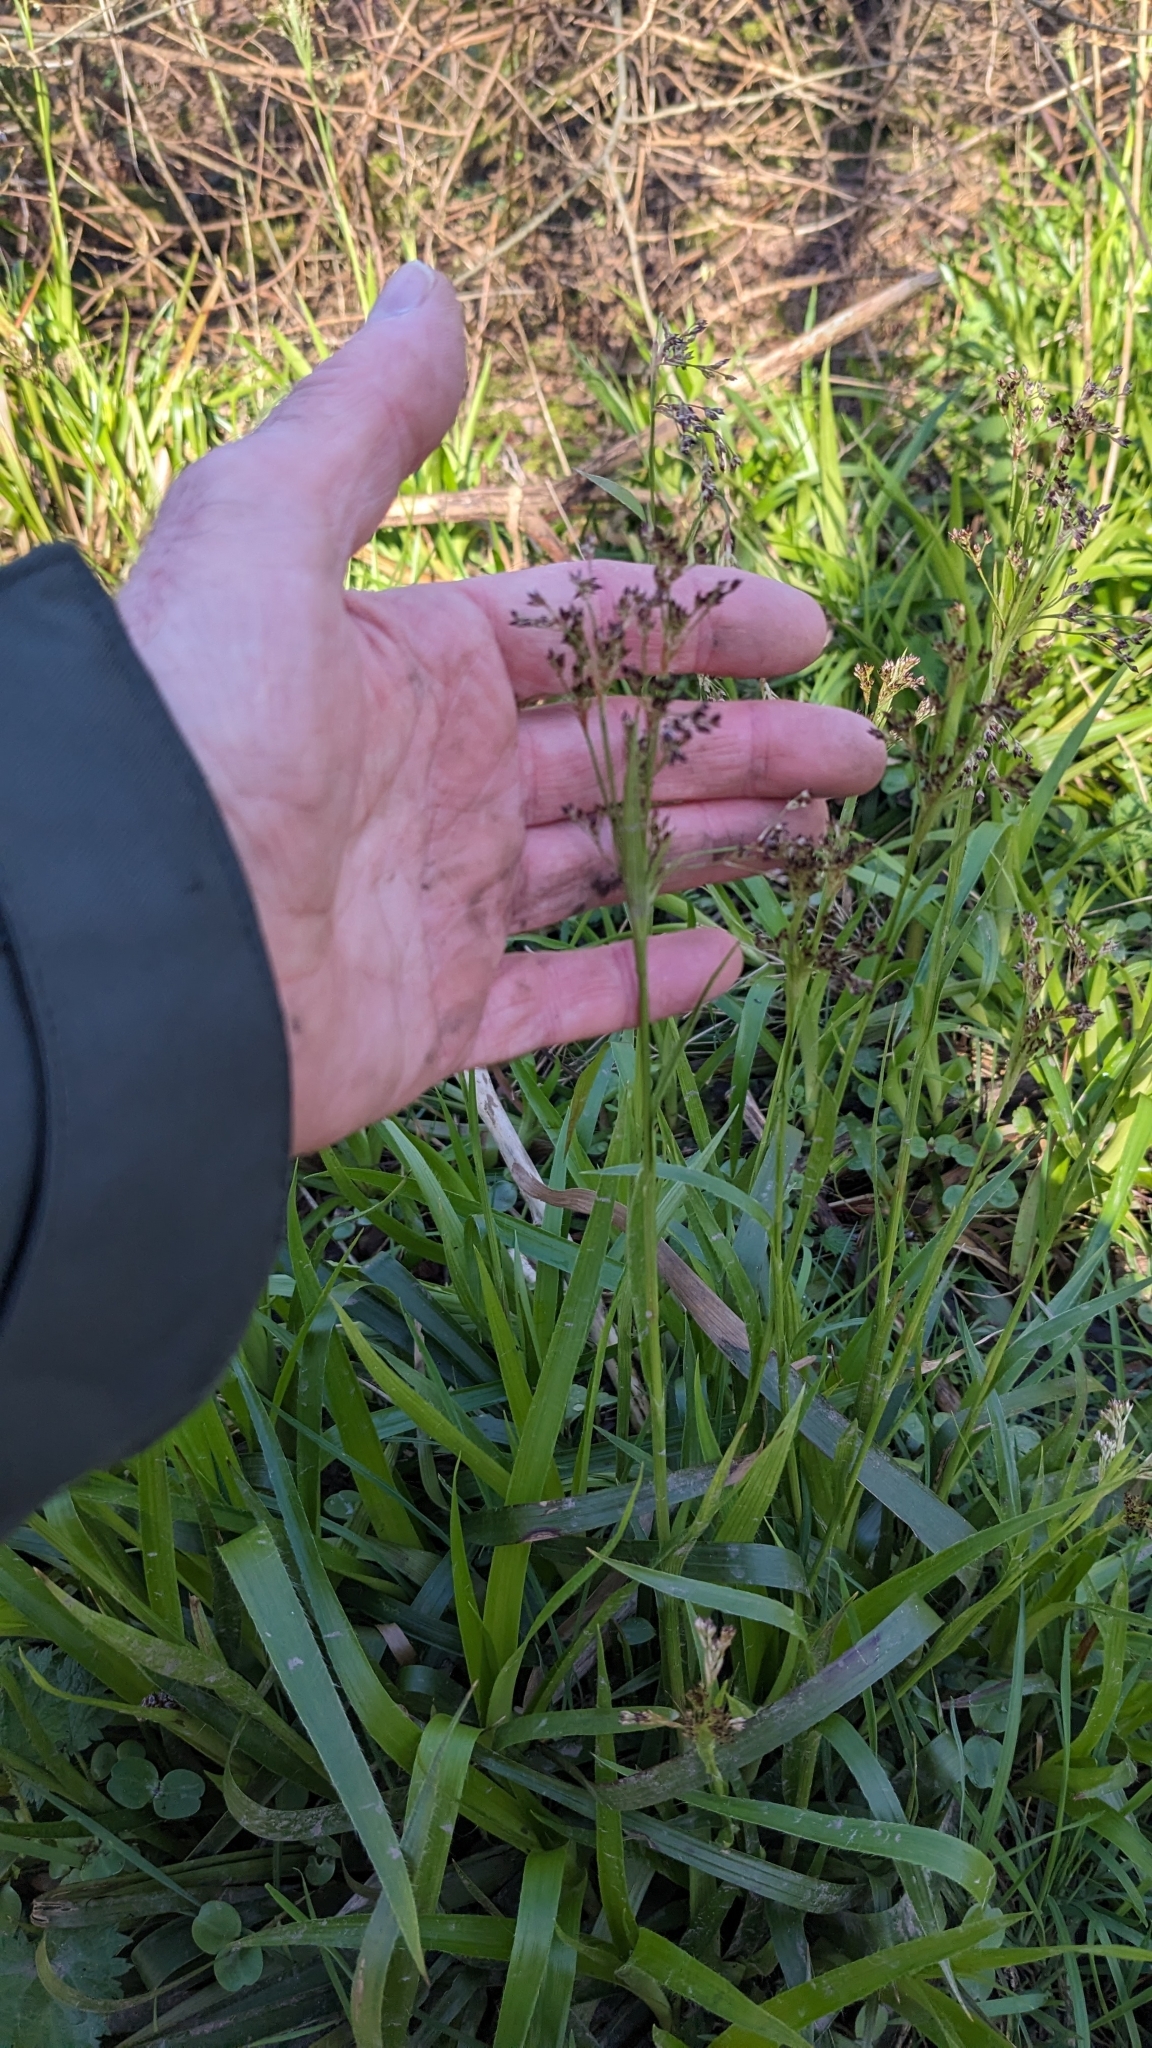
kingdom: Plantae
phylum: Tracheophyta
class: Liliopsida
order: Poales
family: Juncaceae
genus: Luzula
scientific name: Luzula sylvatica
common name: Great wood-rush
